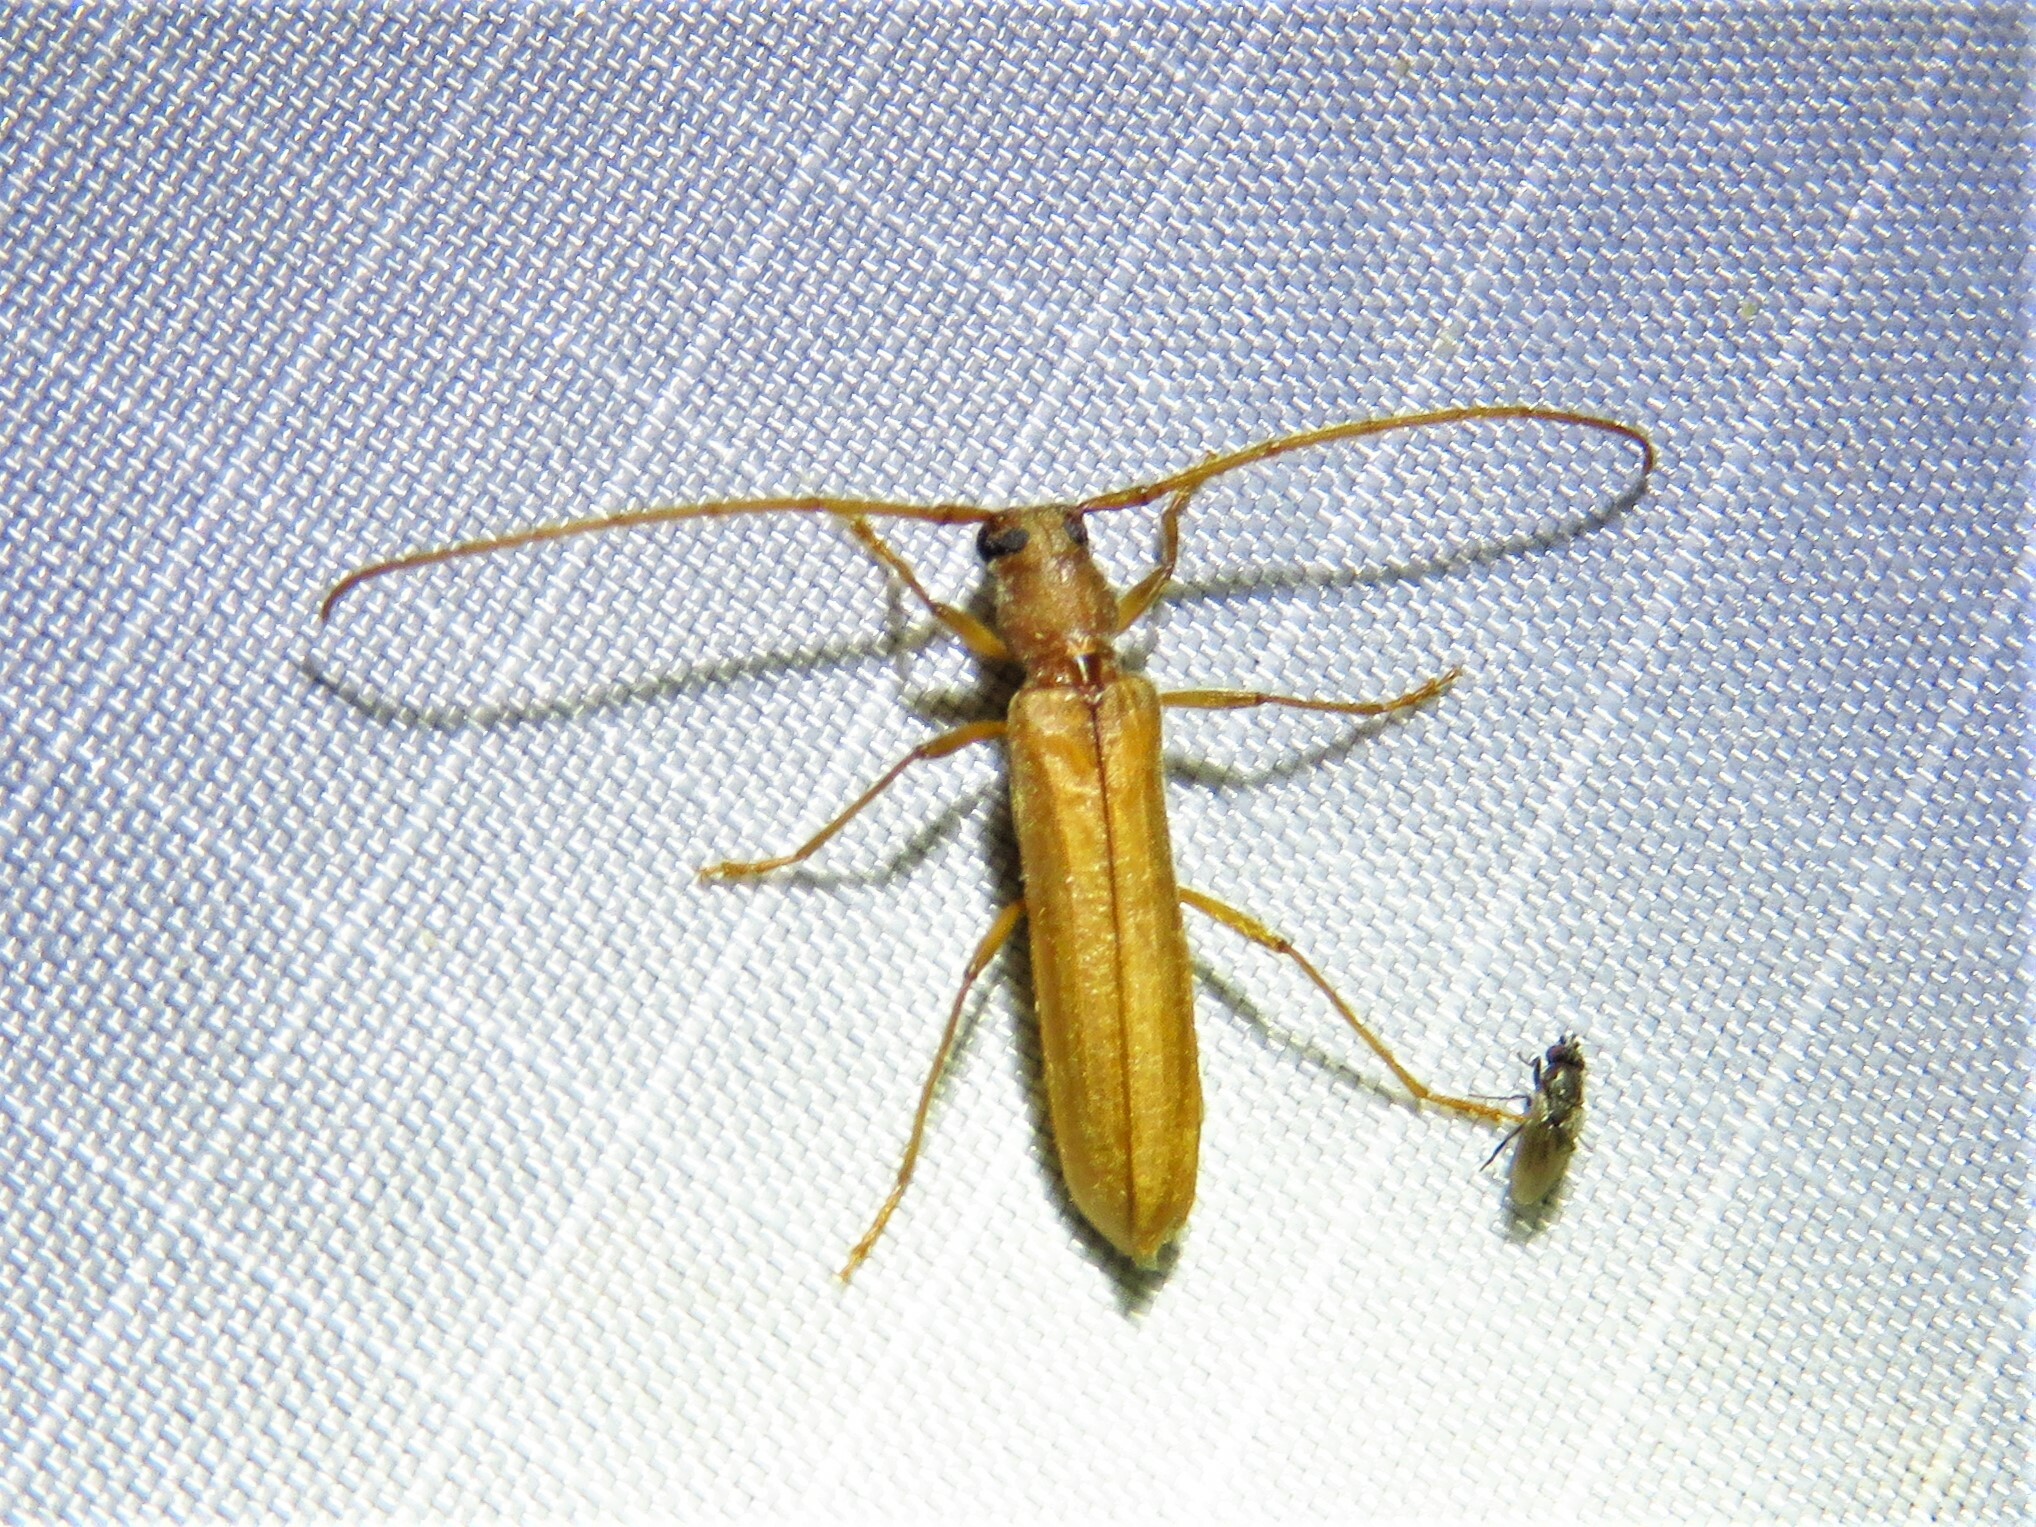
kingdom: Animalia
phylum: Arthropoda
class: Insecta
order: Coleoptera
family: Cerambycidae
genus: Oeme
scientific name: Oeme rigida
